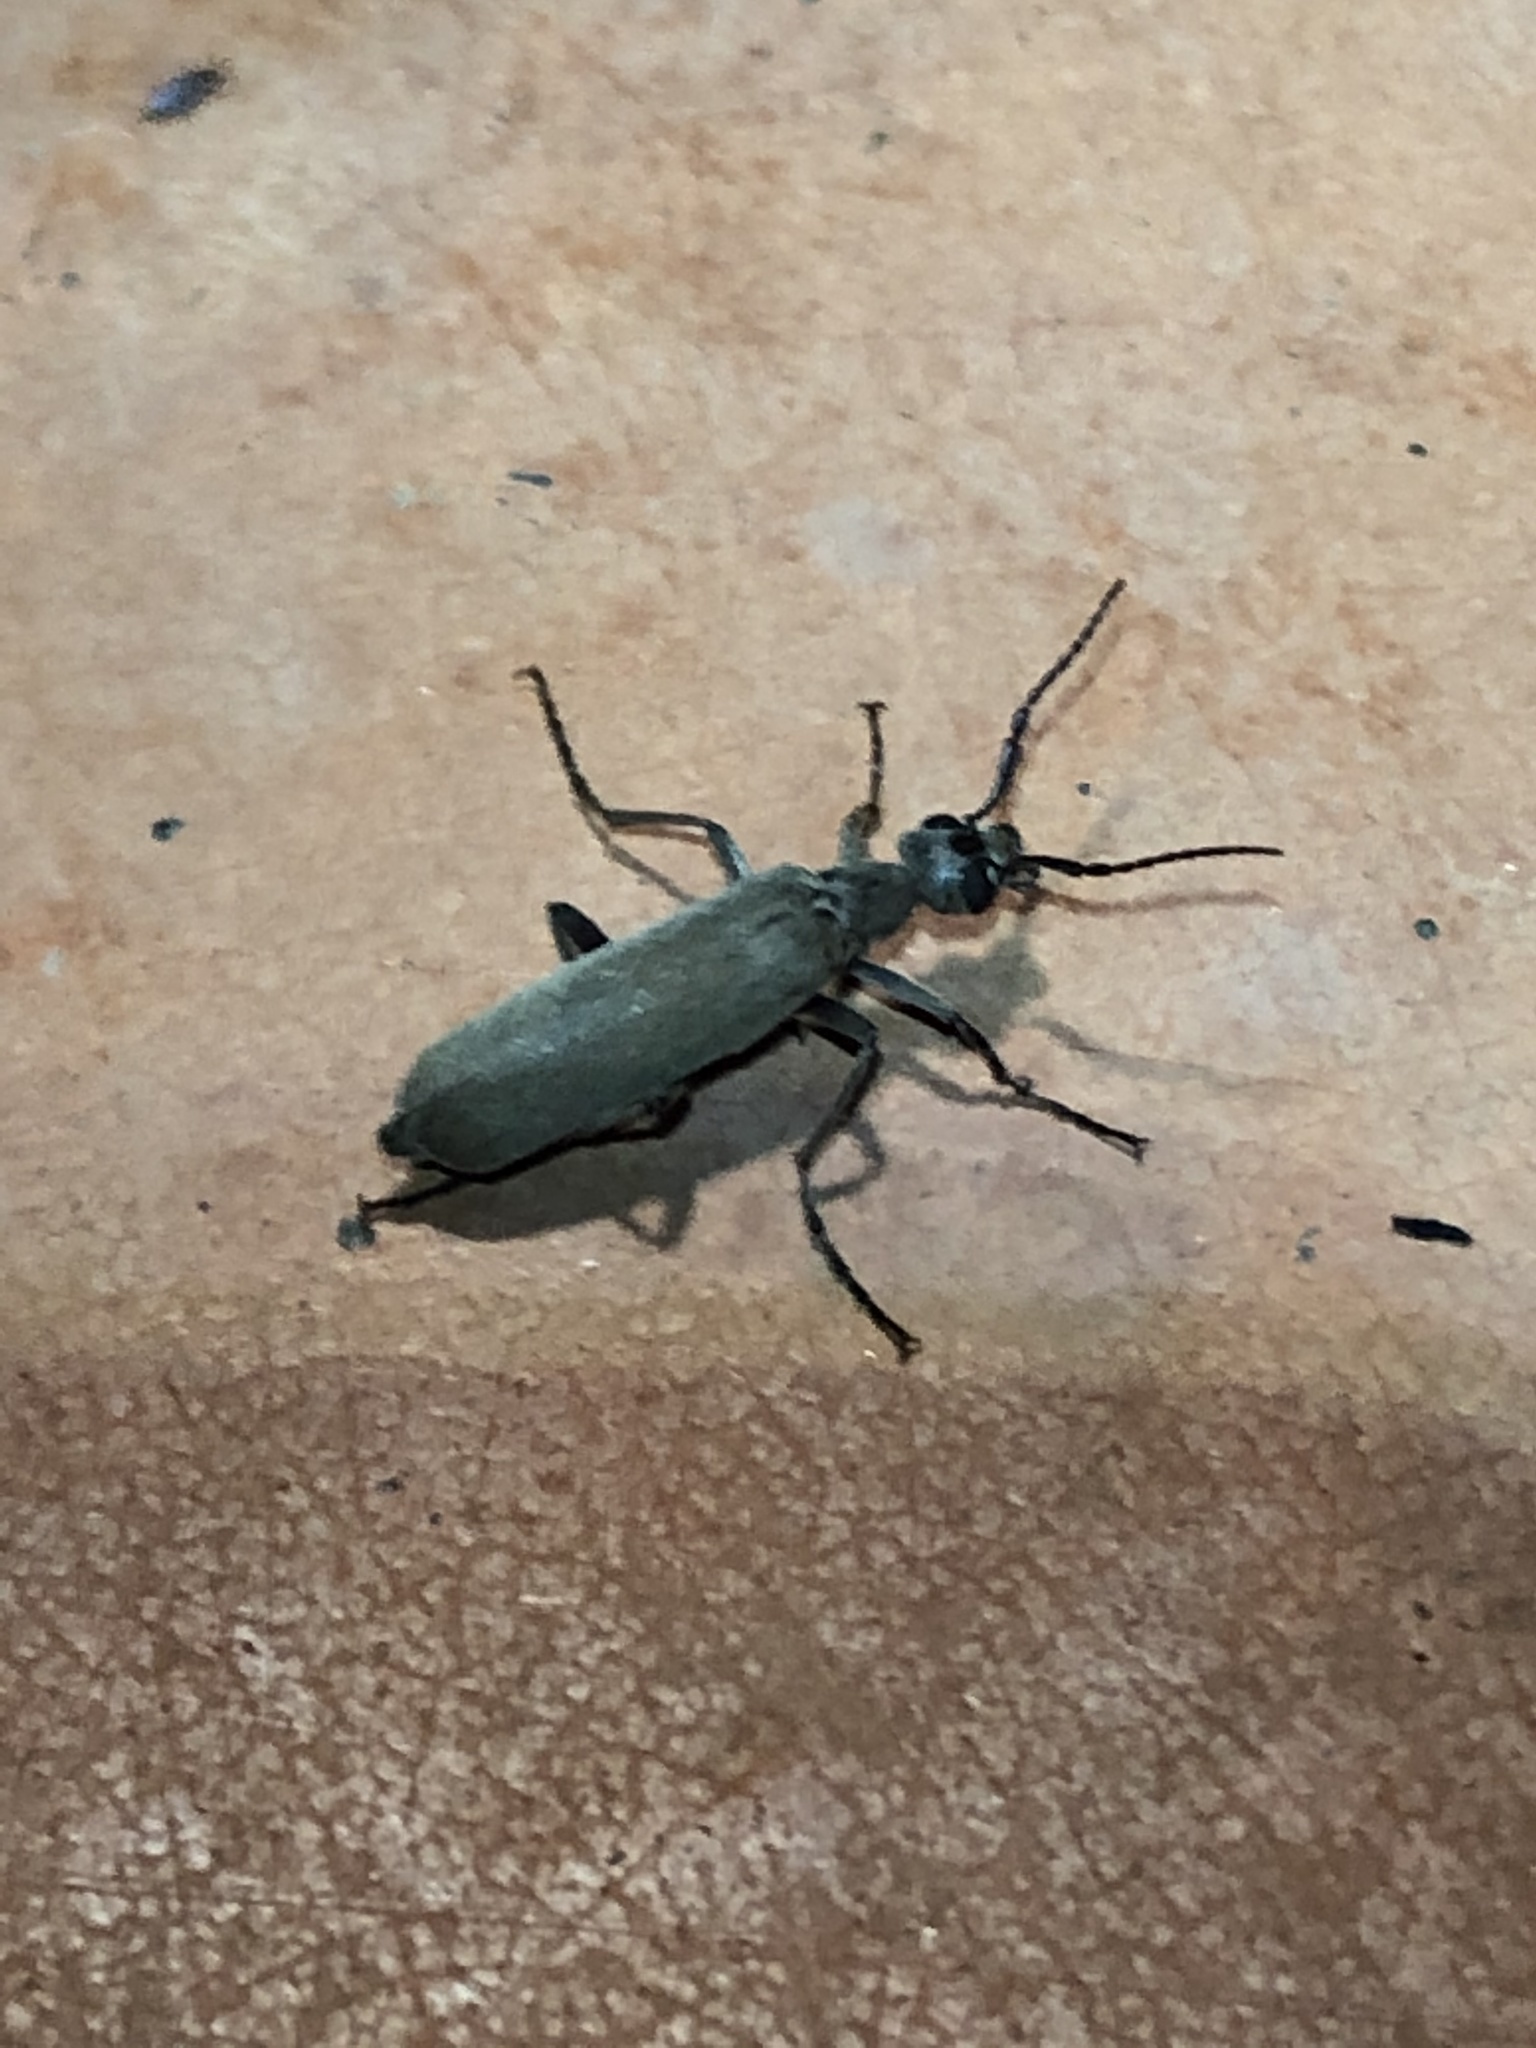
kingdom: Animalia
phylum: Arthropoda
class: Insecta
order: Coleoptera
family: Meloidae
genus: Epicauta
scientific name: Epicauta arizonica
